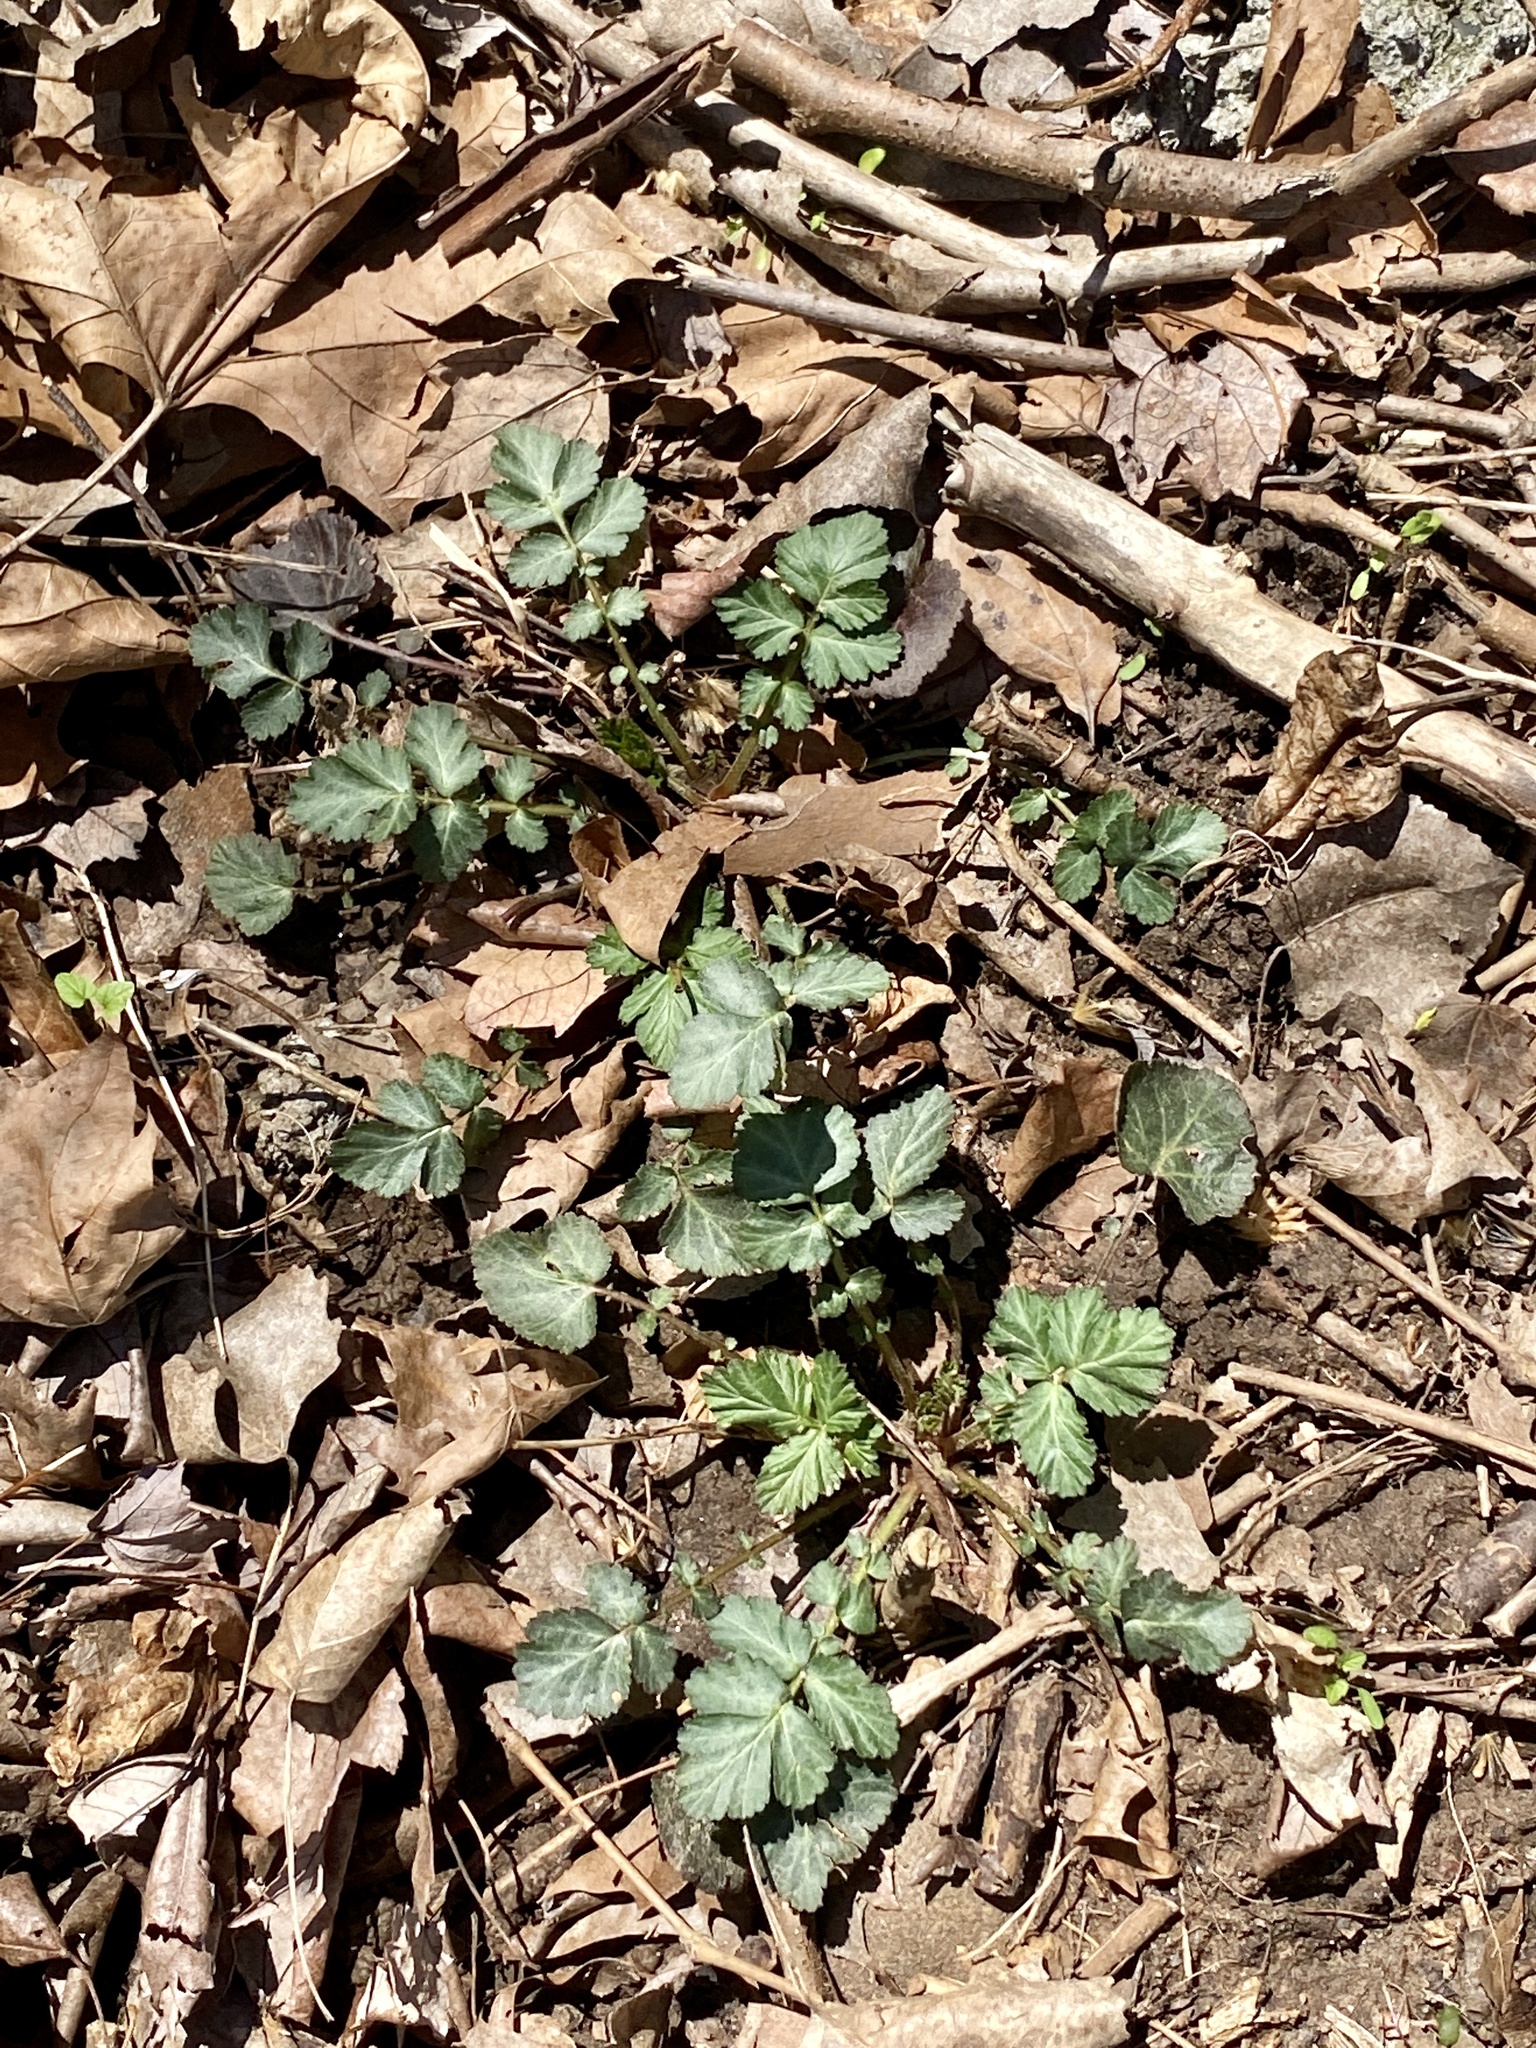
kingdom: Plantae
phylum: Tracheophyta
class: Magnoliopsida
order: Rosales
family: Rosaceae
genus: Geum
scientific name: Geum canadense
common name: White avens
